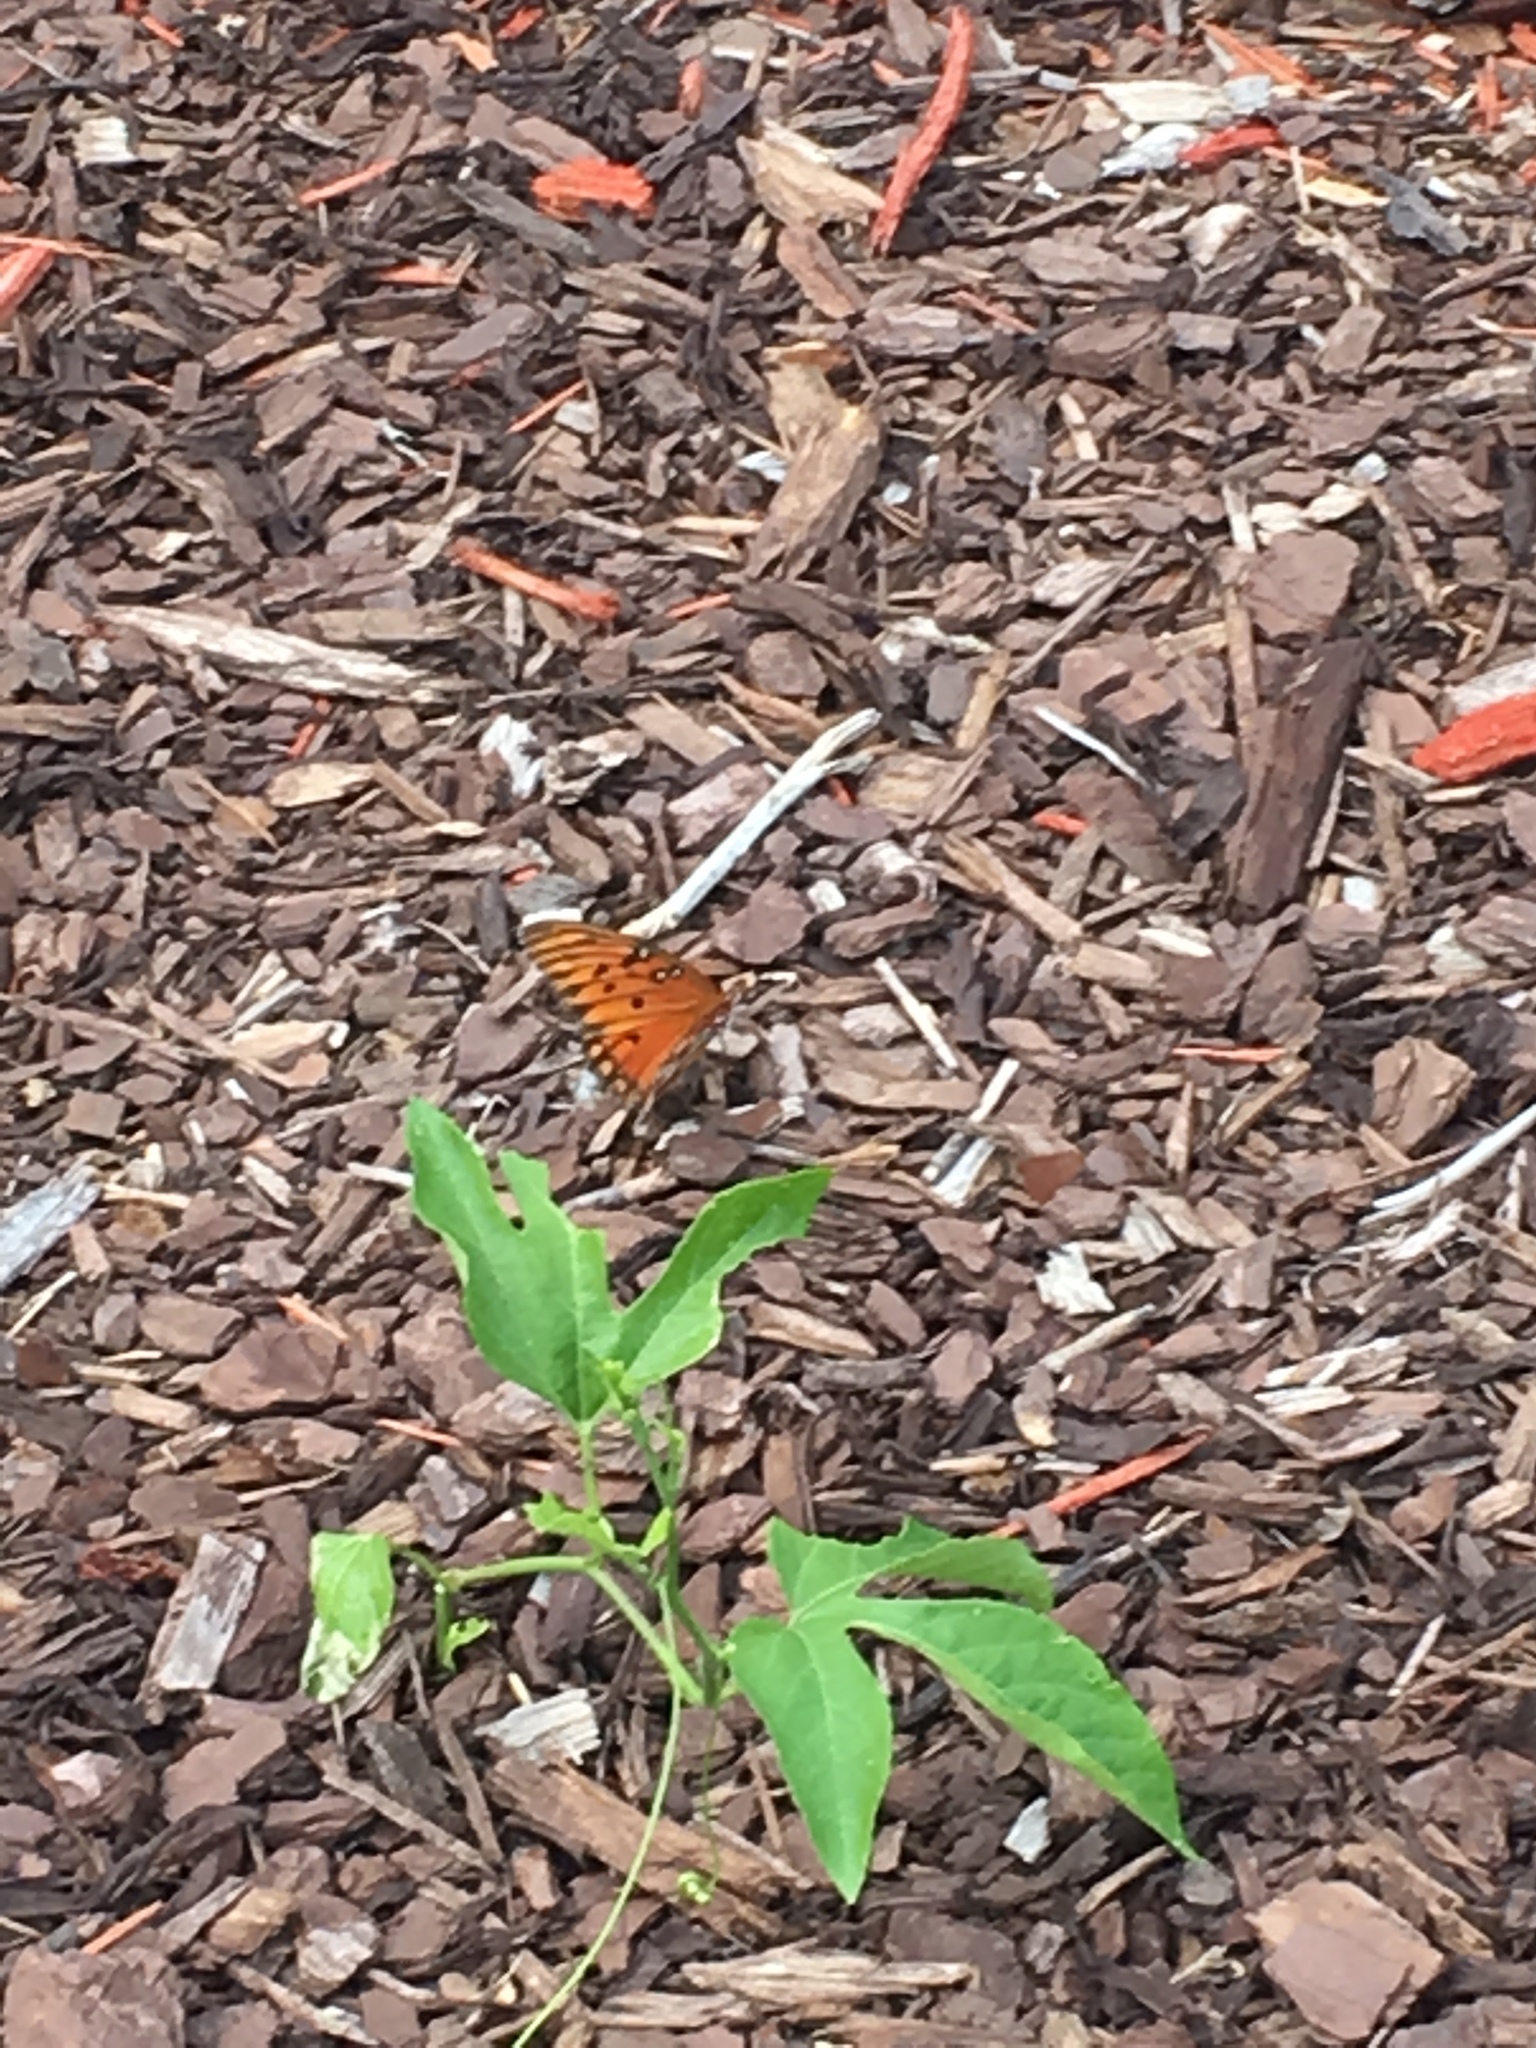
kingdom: Animalia
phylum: Arthropoda
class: Insecta
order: Lepidoptera
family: Nymphalidae
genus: Dione
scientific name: Dione vanillae
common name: Gulf fritillary
